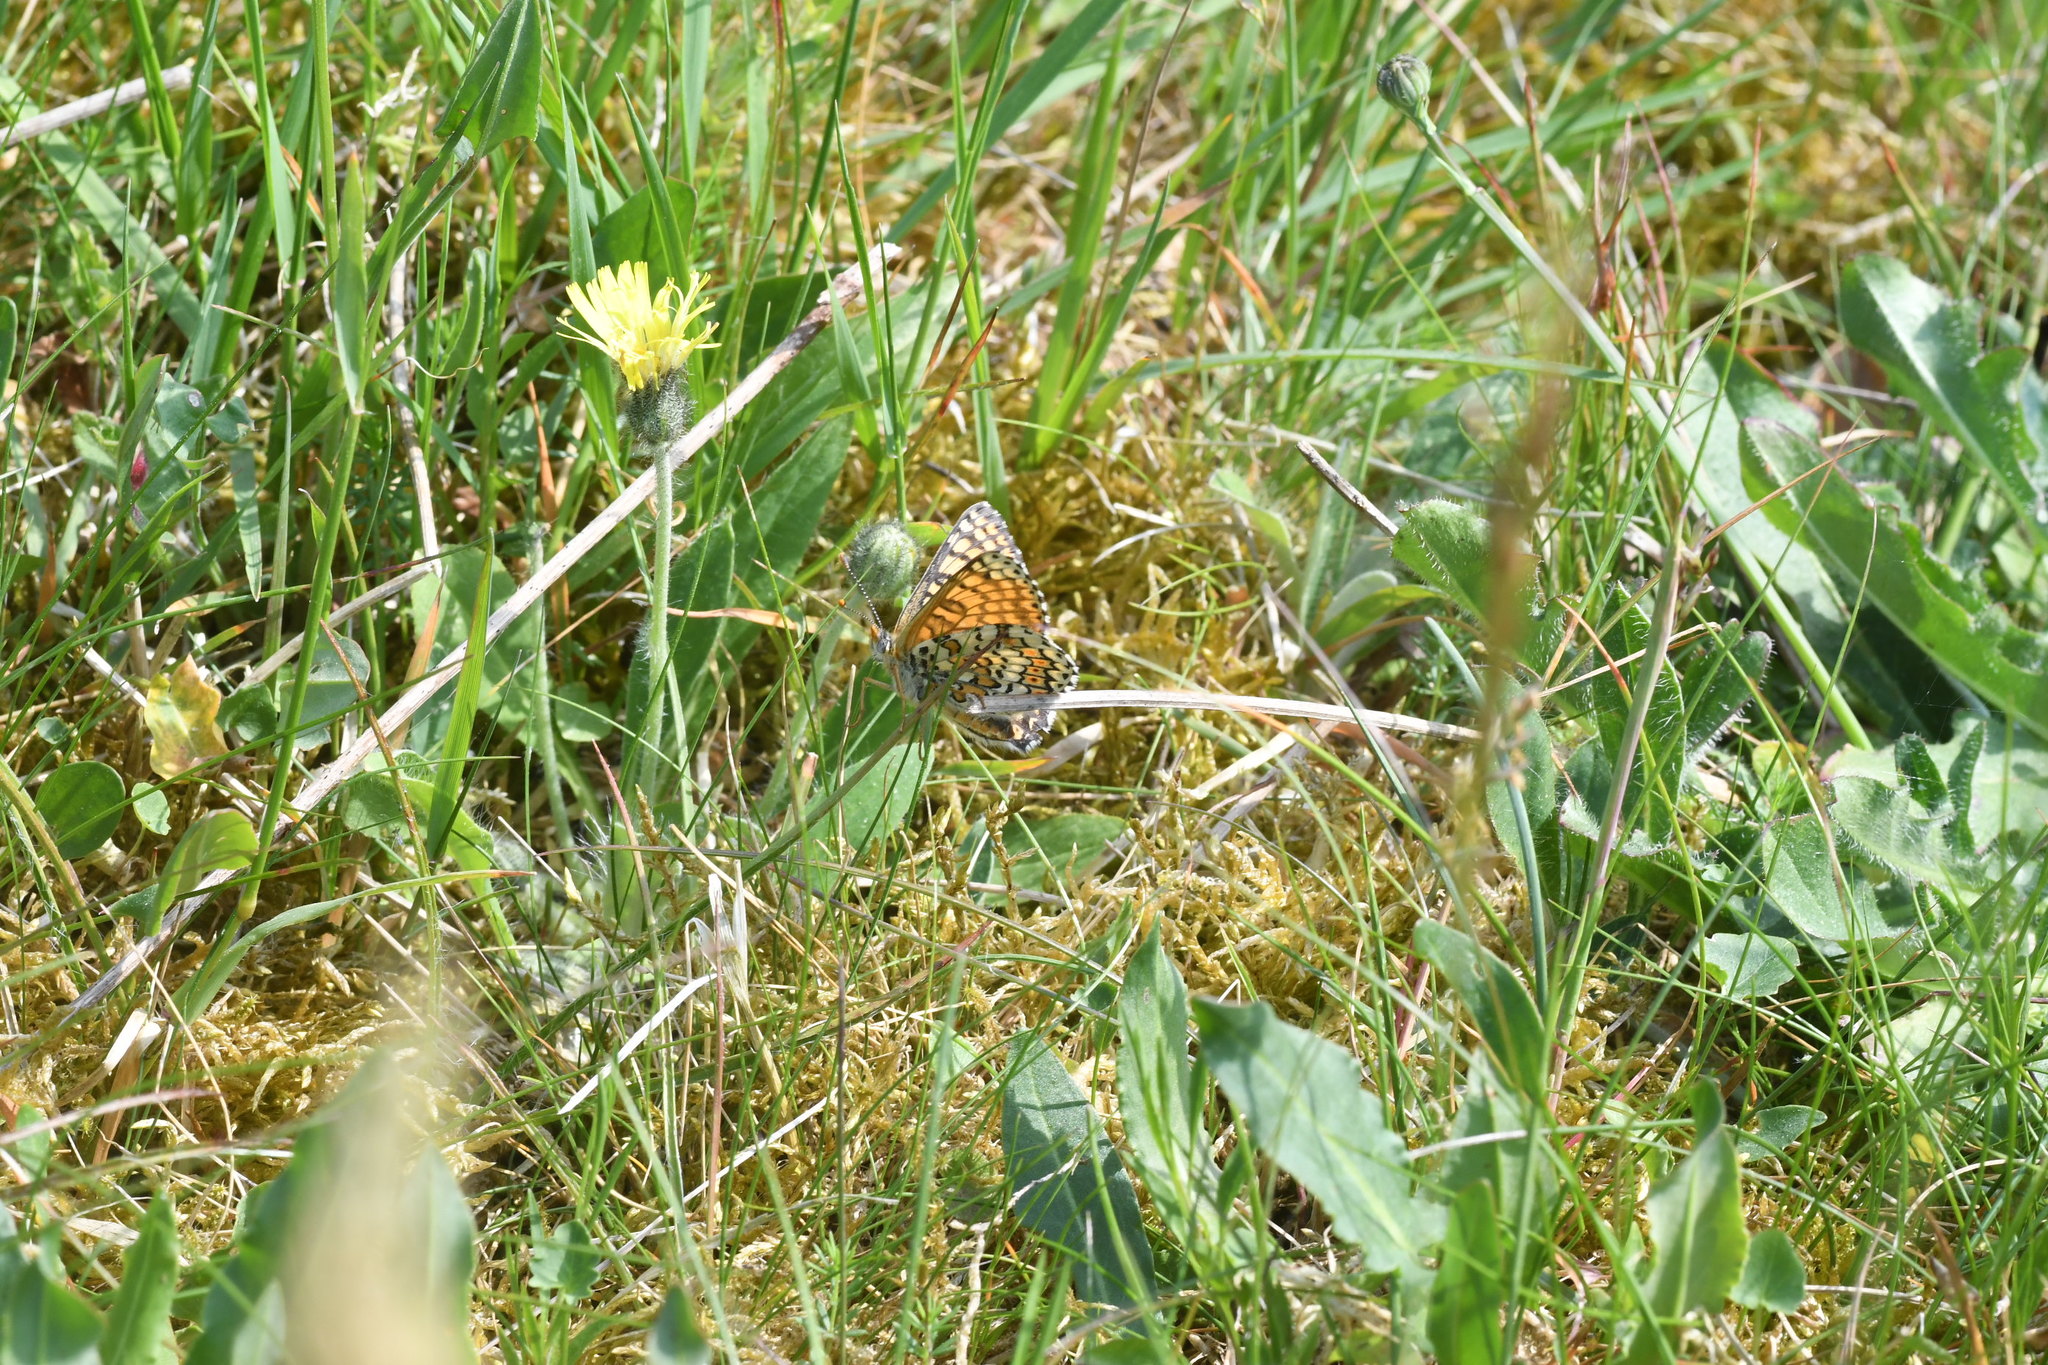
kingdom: Animalia
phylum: Arthropoda
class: Insecta
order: Lepidoptera
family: Nymphalidae
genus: Melitaea
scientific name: Melitaea cinxia
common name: Glanville fritillary
